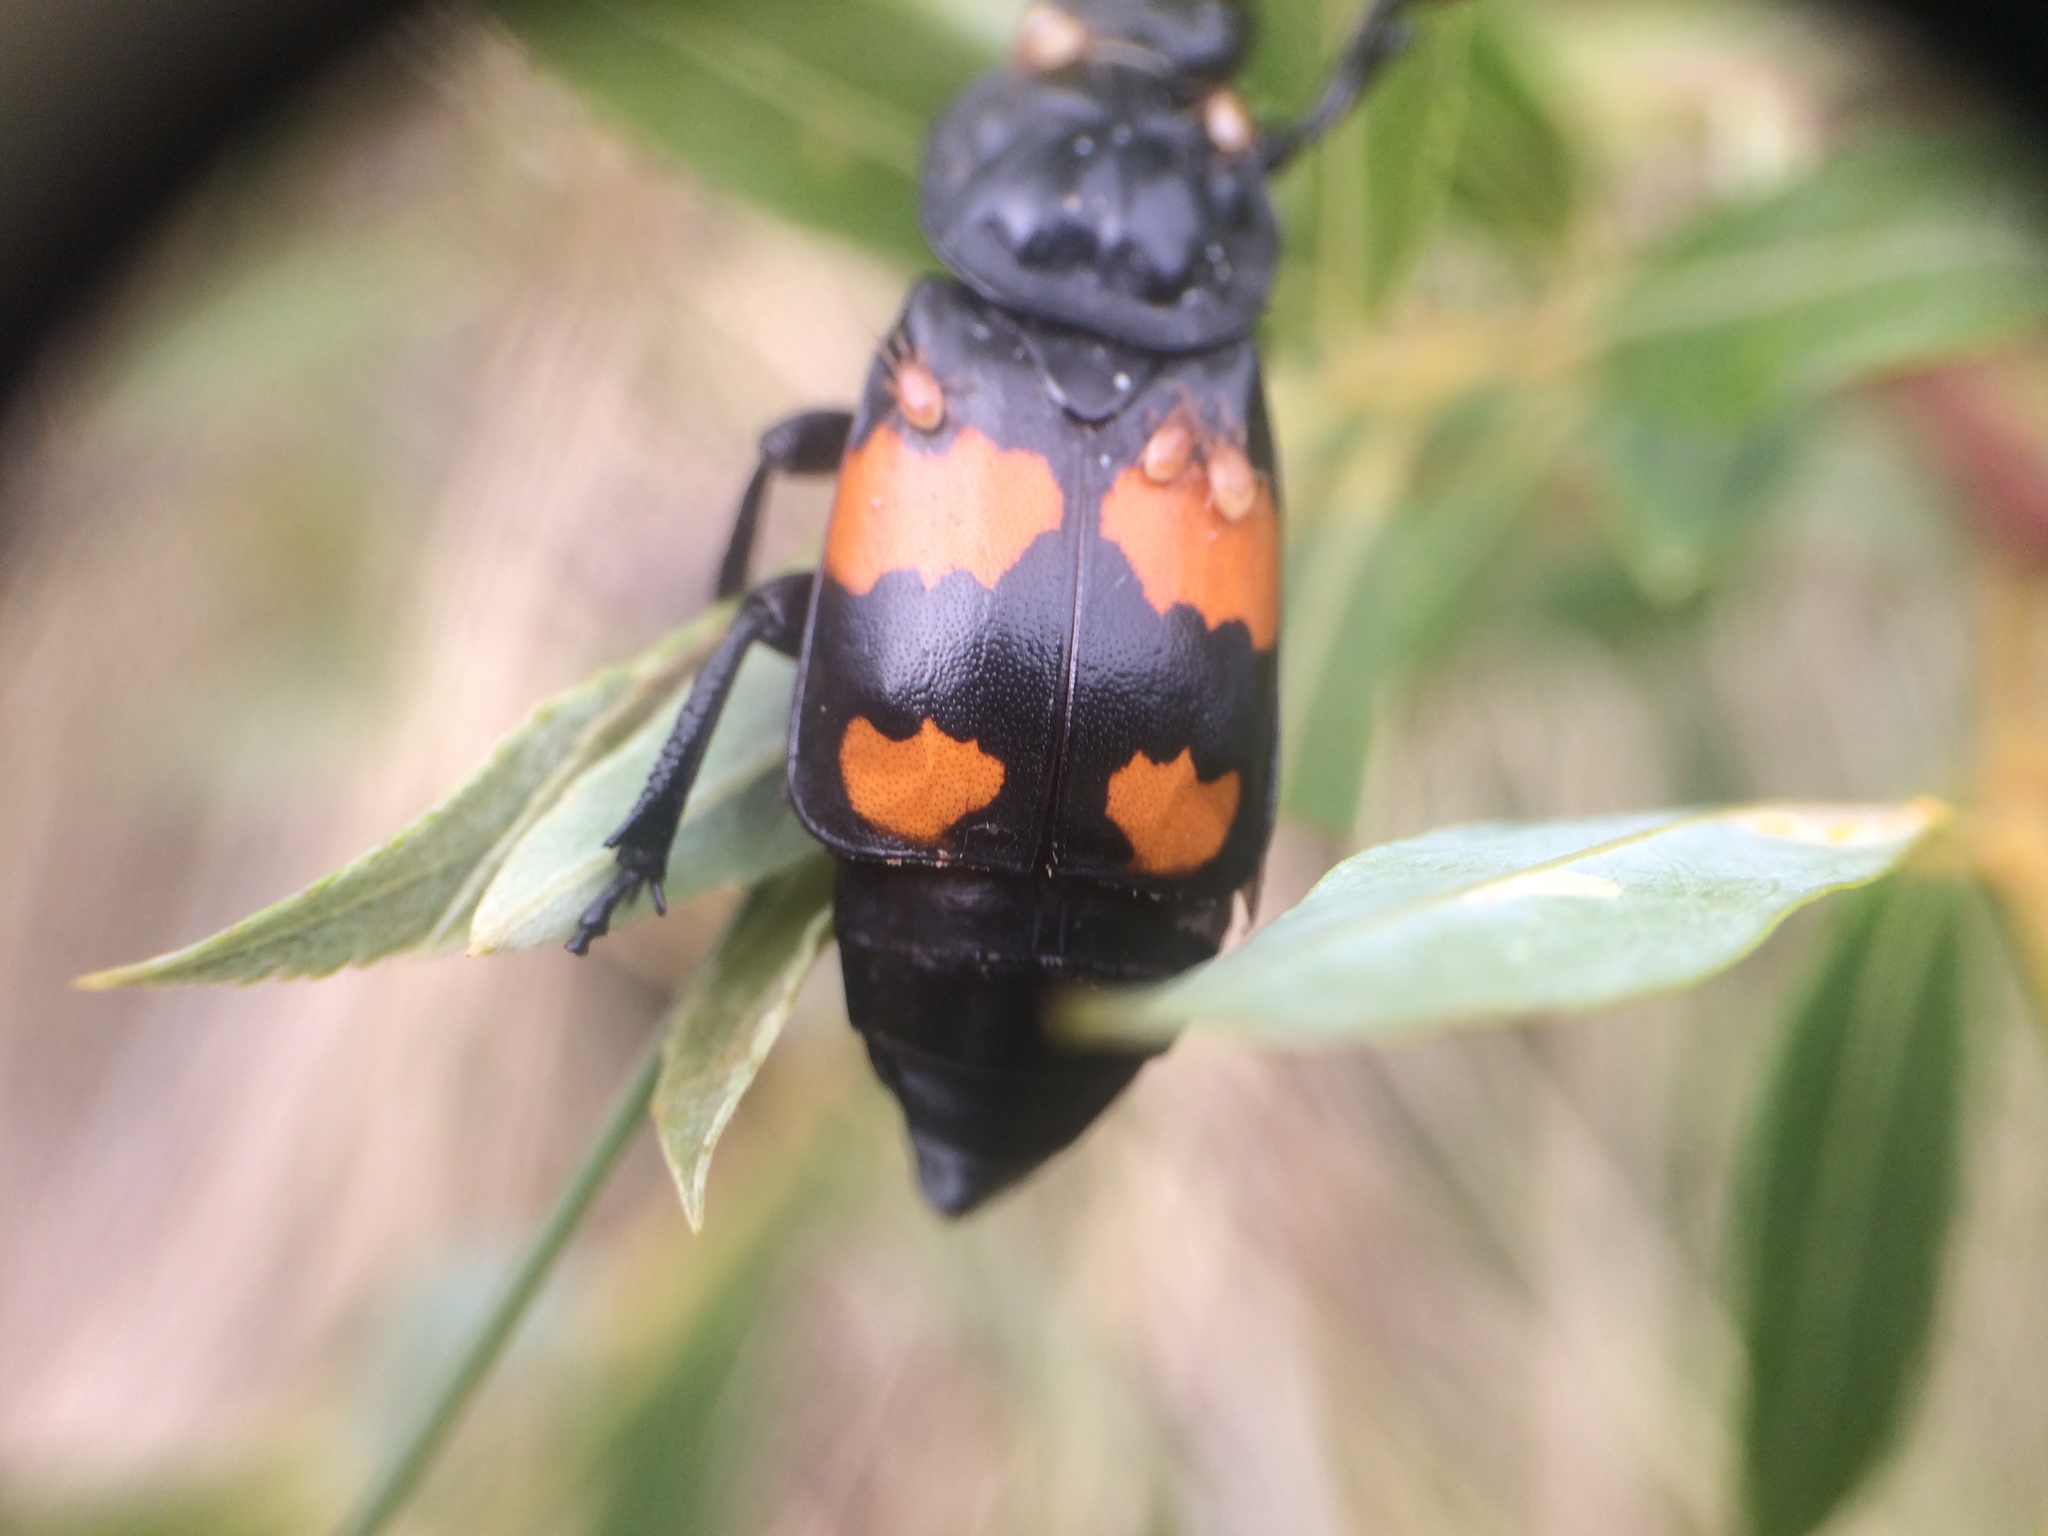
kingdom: Animalia
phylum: Arthropoda
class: Insecta
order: Coleoptera
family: Staphylinidae
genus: Nicrophorus
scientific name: Nicrophorus hebes
